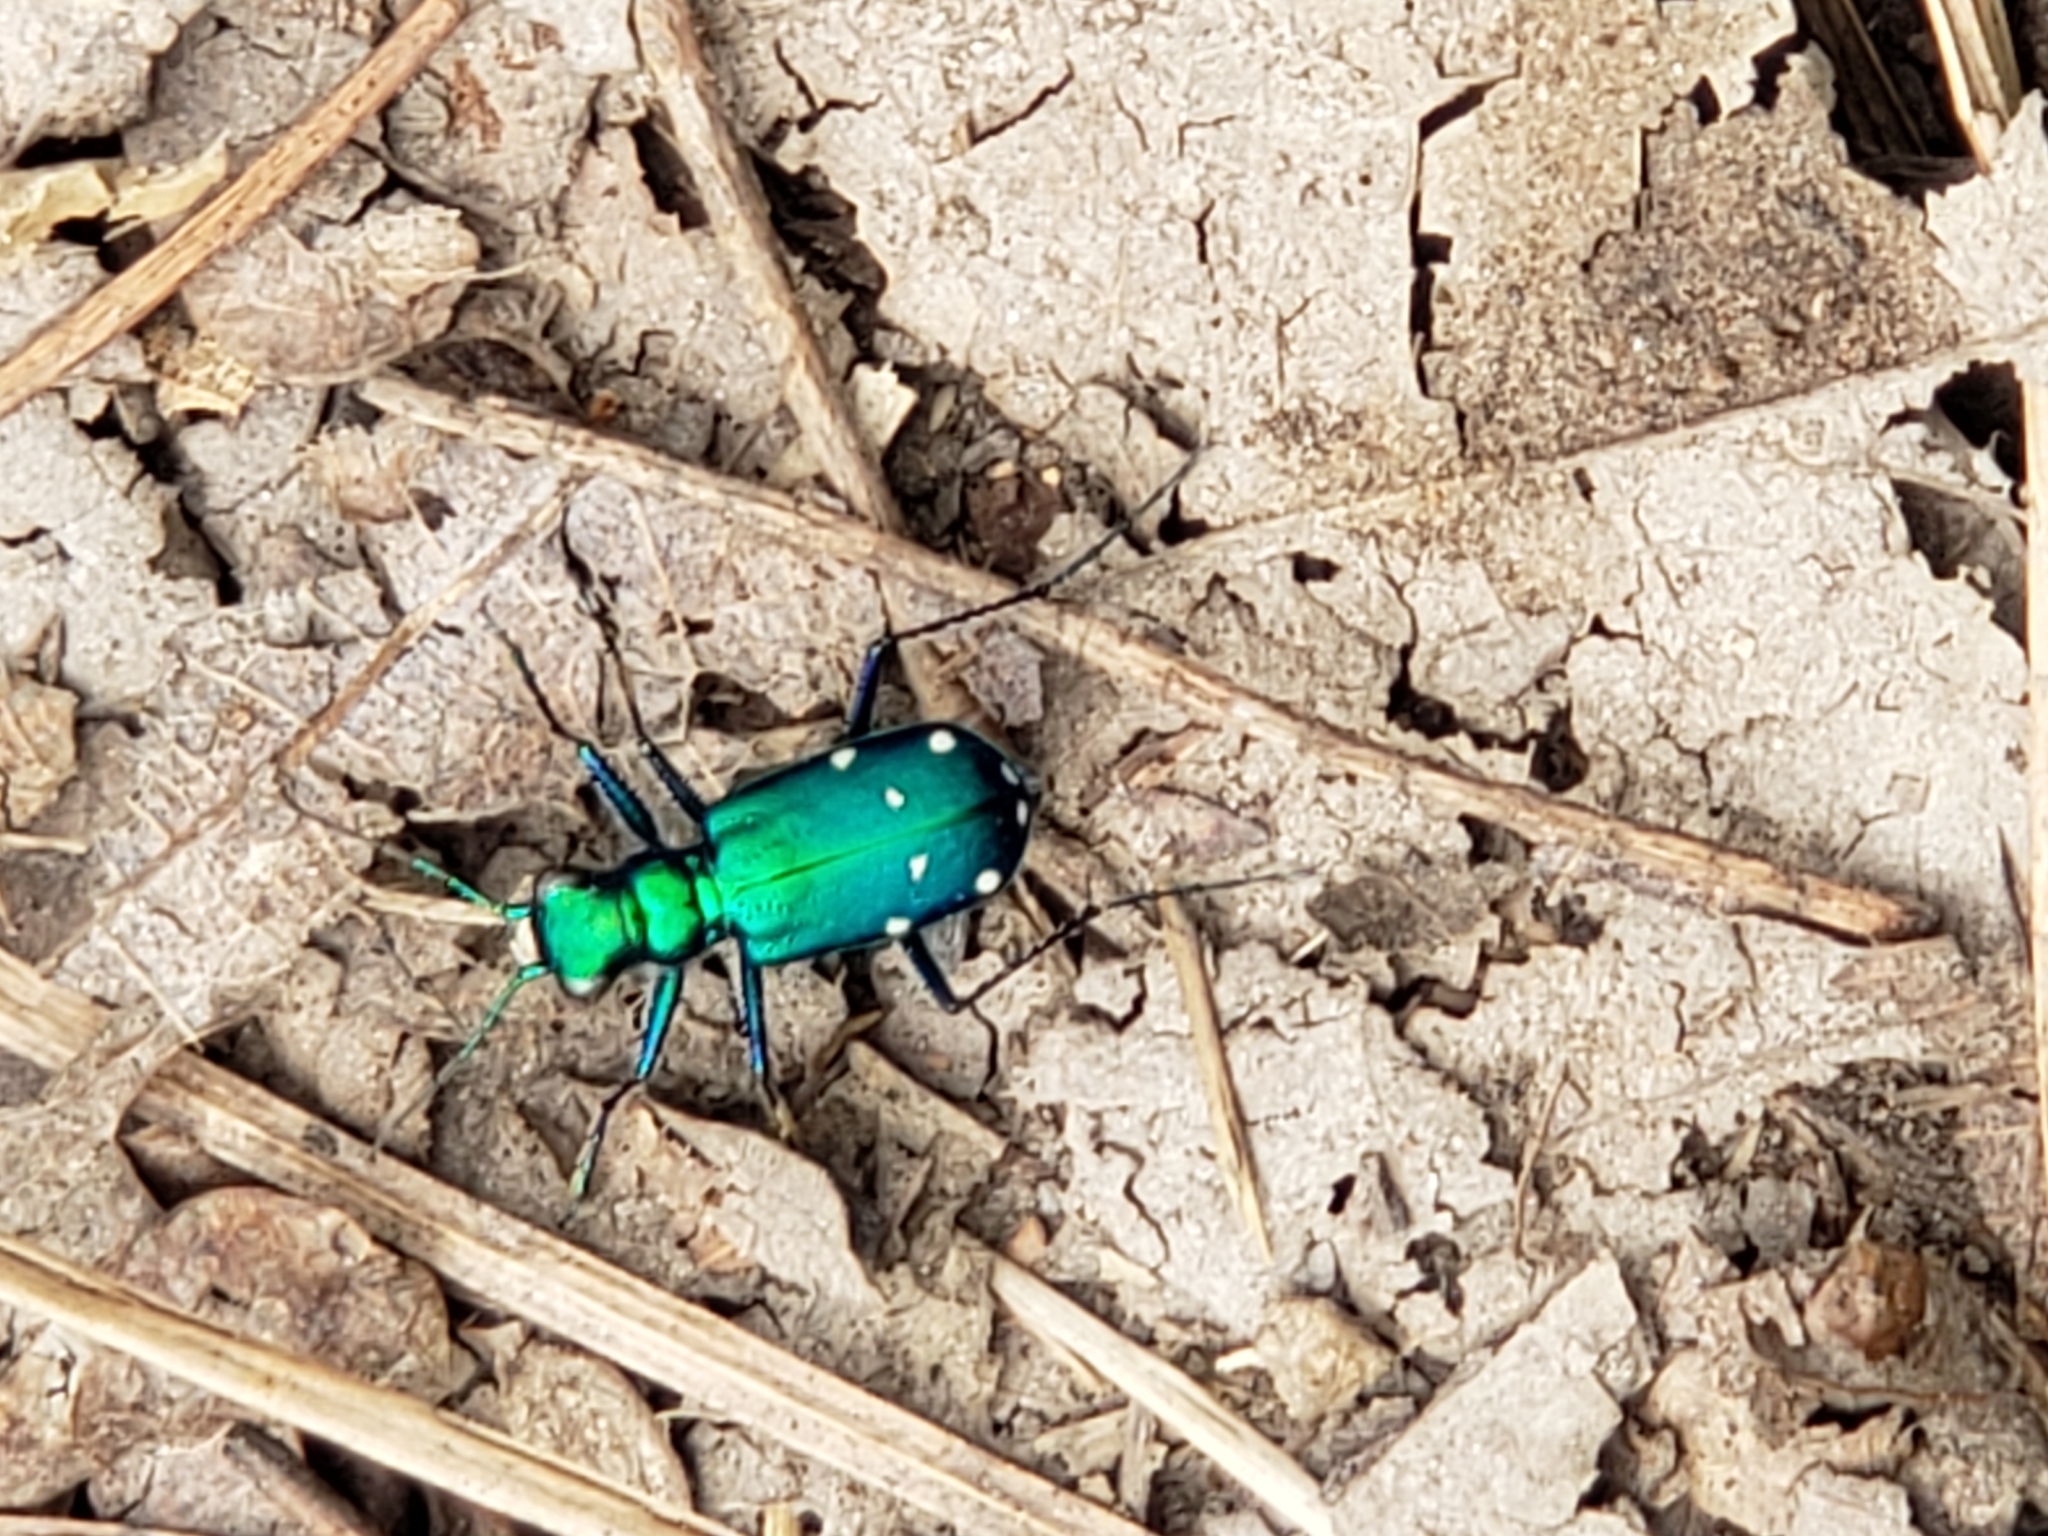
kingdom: Animalia
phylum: Arthropoda
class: Insecta
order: Coleoptera
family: Carabidae
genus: Cicindela
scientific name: Cicindela sexguttata
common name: Six-spotted tiger beetle
